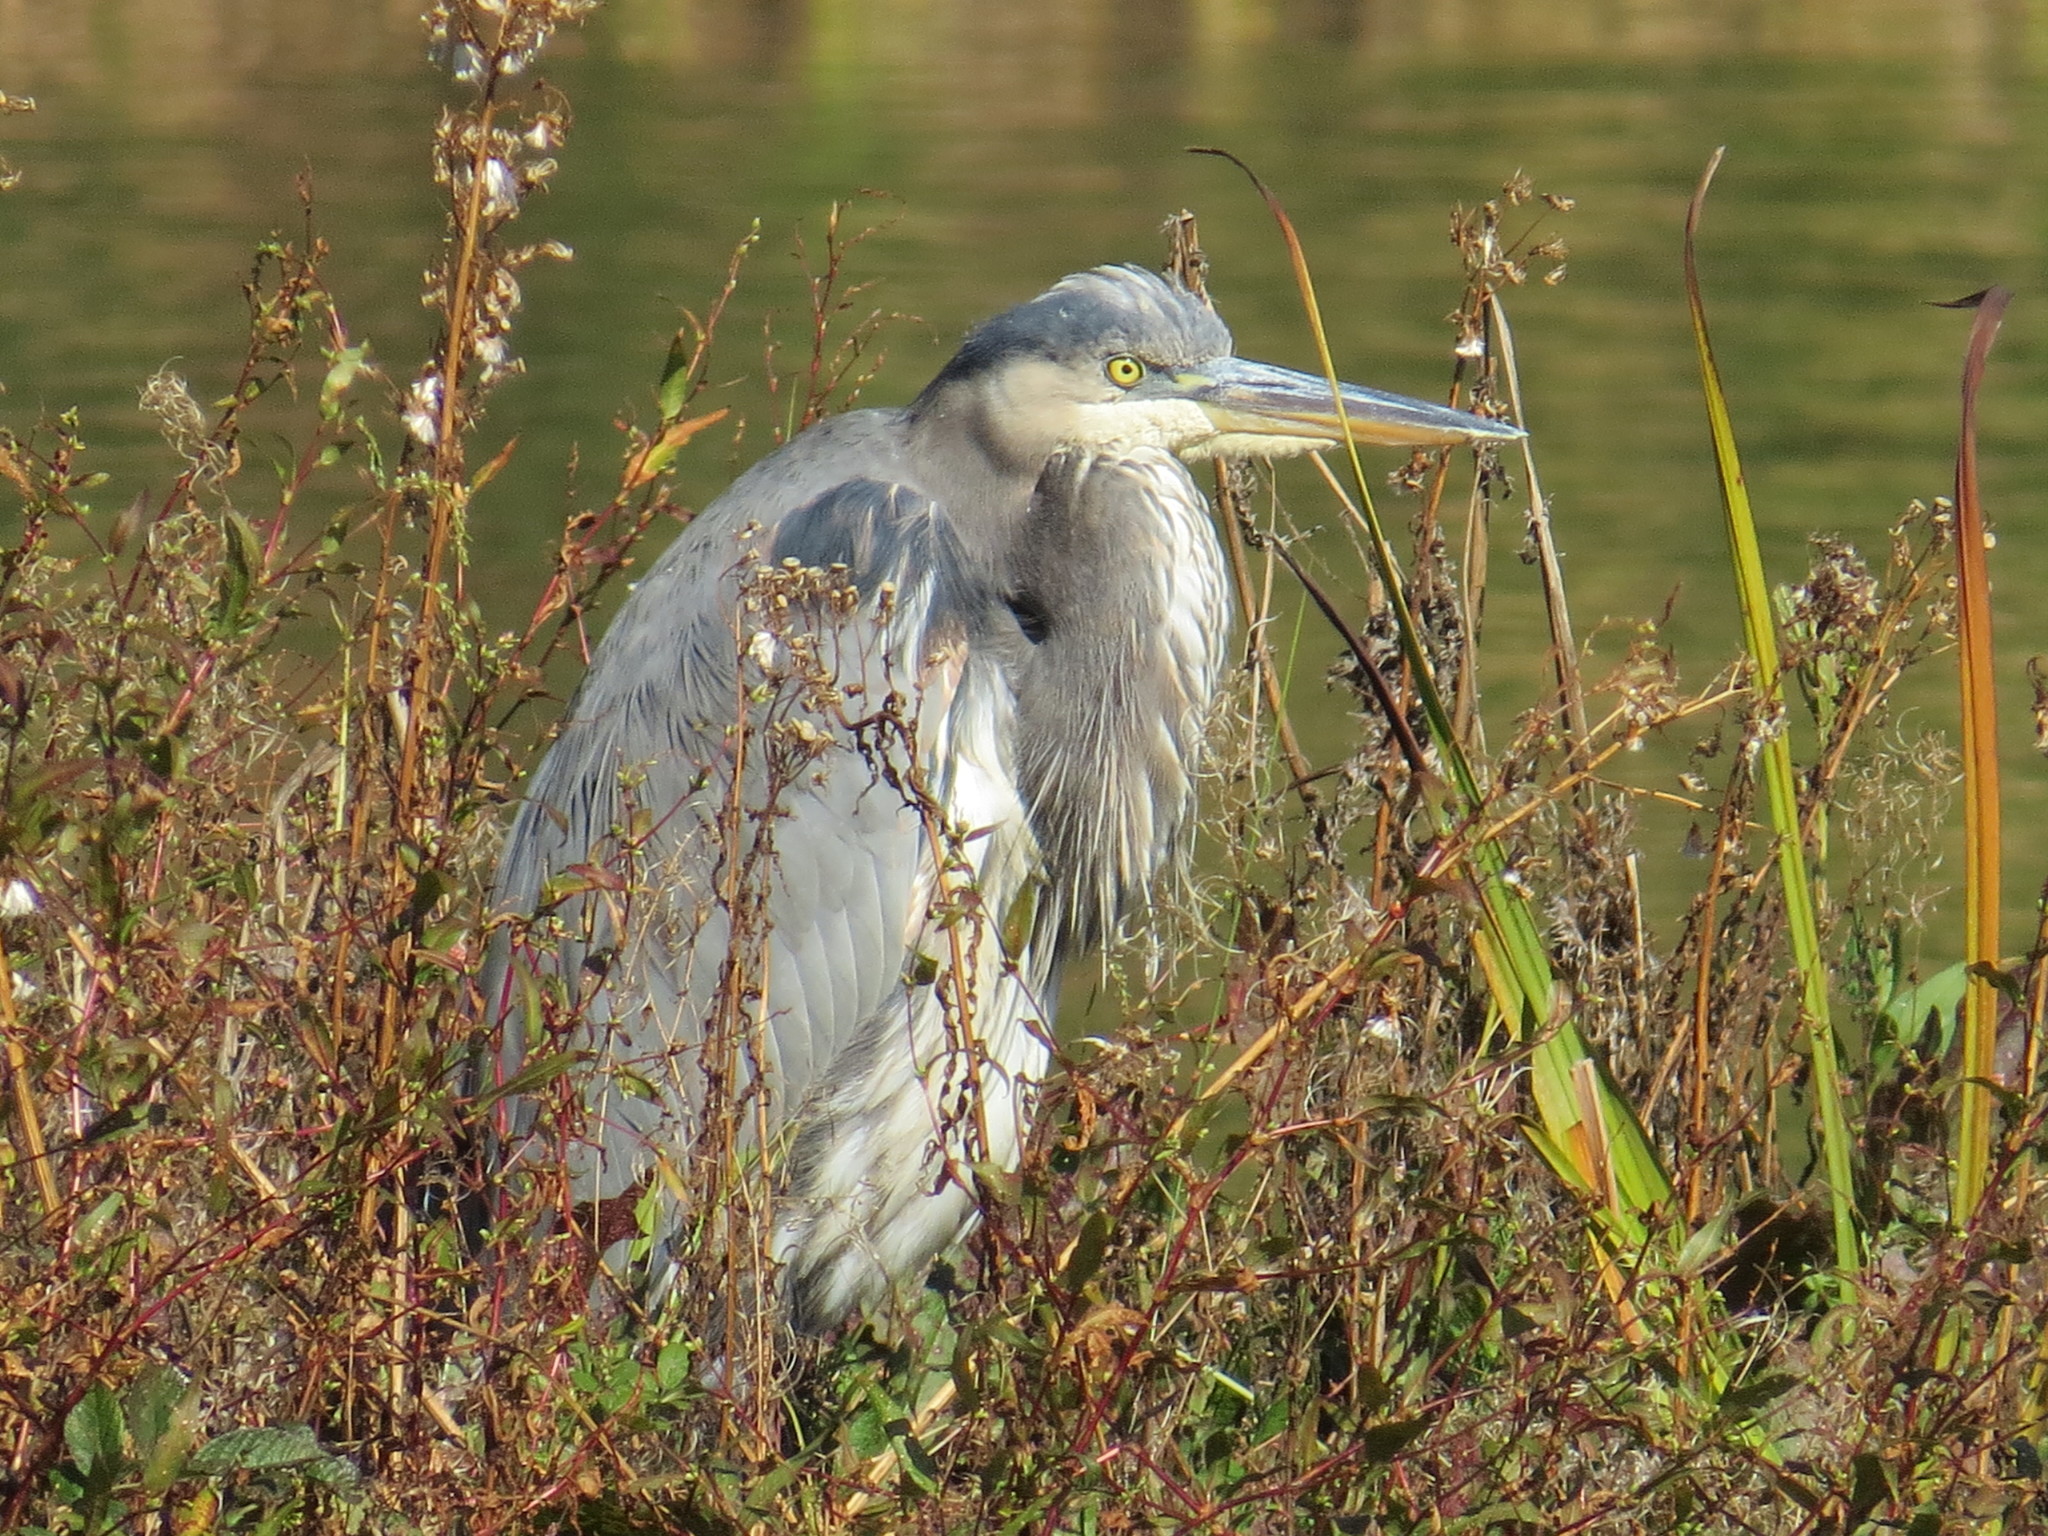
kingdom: Animalia
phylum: Chordata
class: Aves
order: Pelecaniformes
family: Ardeidae
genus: Ardea
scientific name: Ardea herodias
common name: Great blue heron
